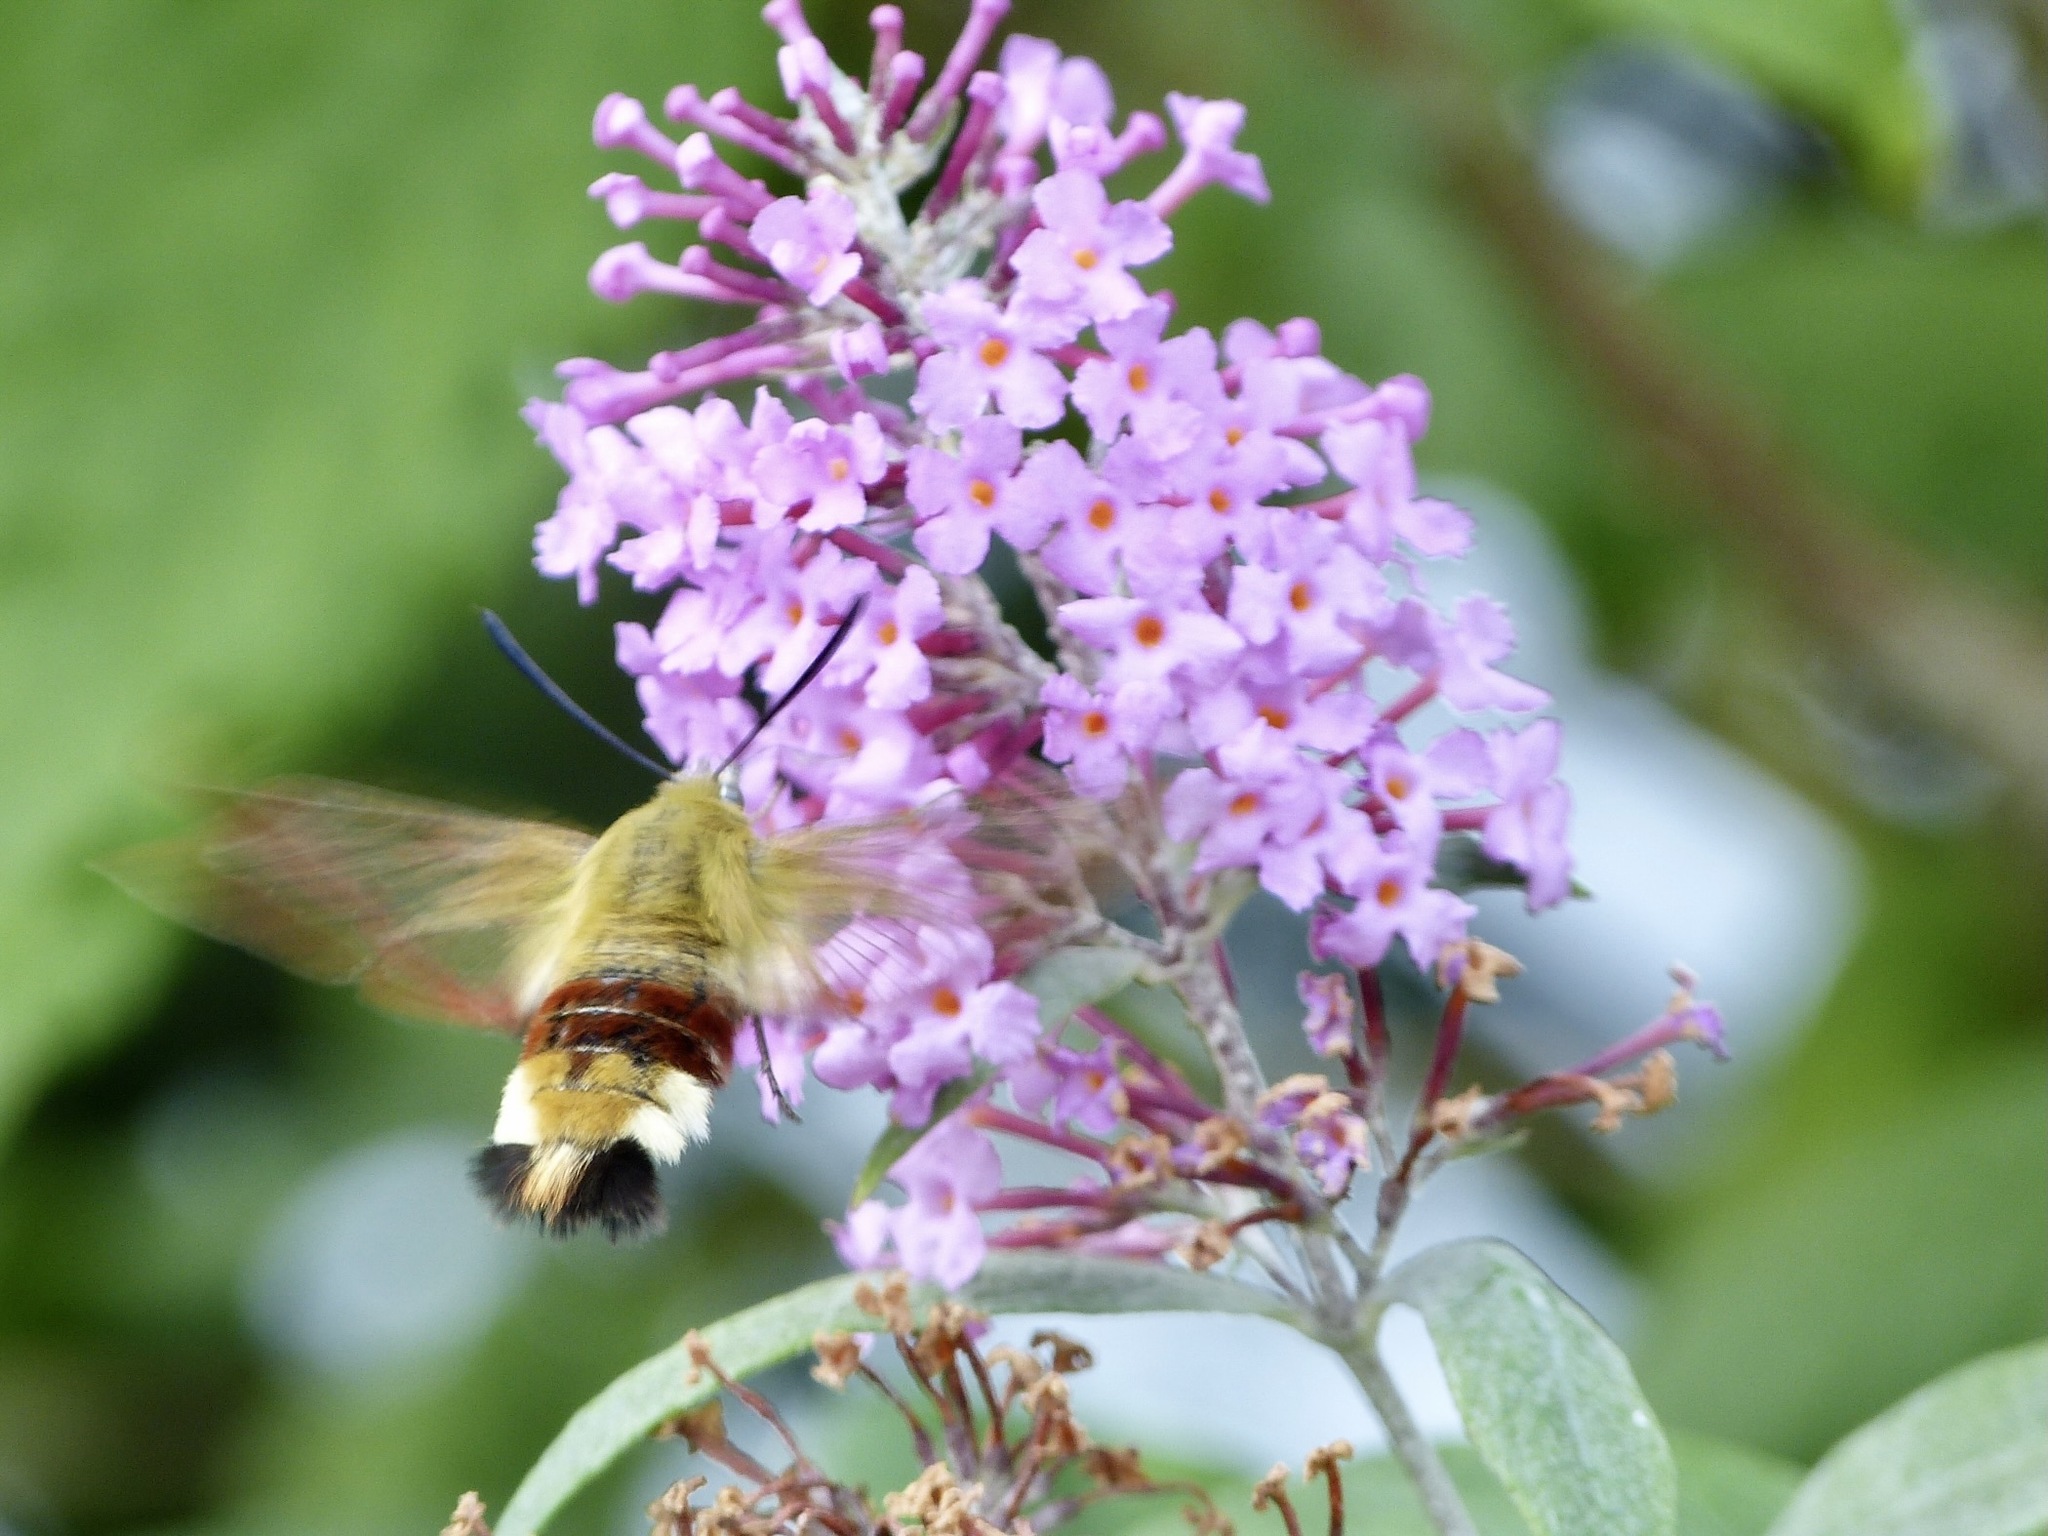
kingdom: Animalia
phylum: Arthropoda
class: Insecta
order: Lepidoptera
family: Sphingidae
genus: Hemaris
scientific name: Hemaris fuciformis
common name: Broad-bordered bee hawk-moth
